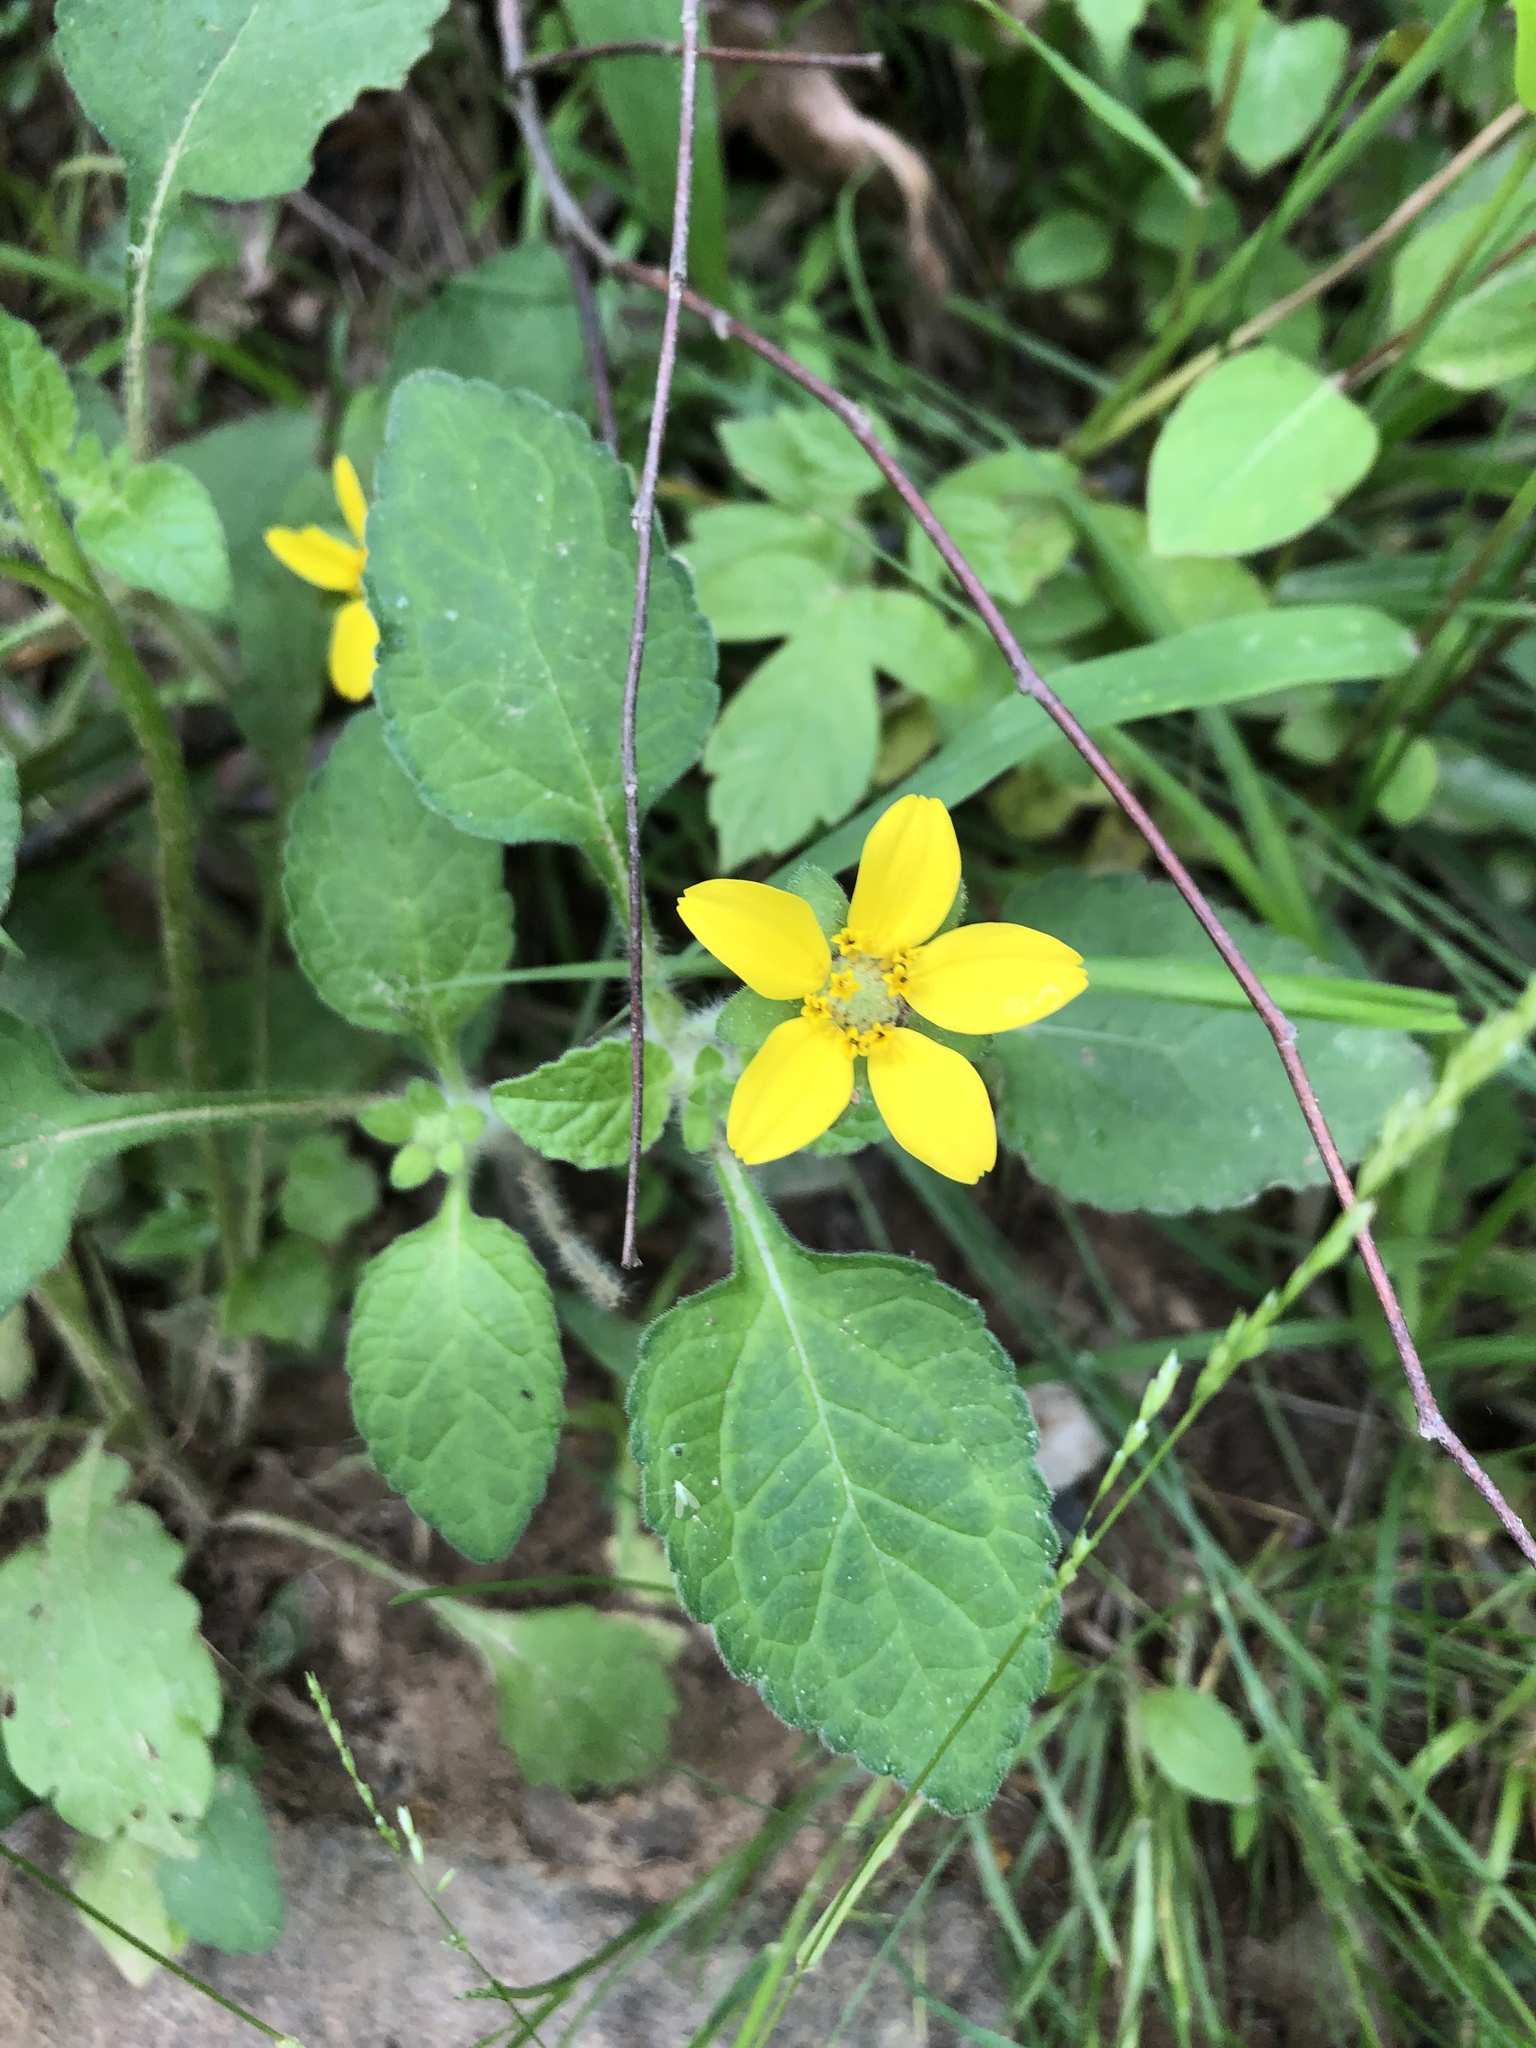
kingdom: Plantae
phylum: Tracheophyta
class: Magnoliopsida
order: Asterales
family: Asteraceae
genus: Chrysogonum
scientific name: Chrysogonum virginianum
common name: Golden-knee
